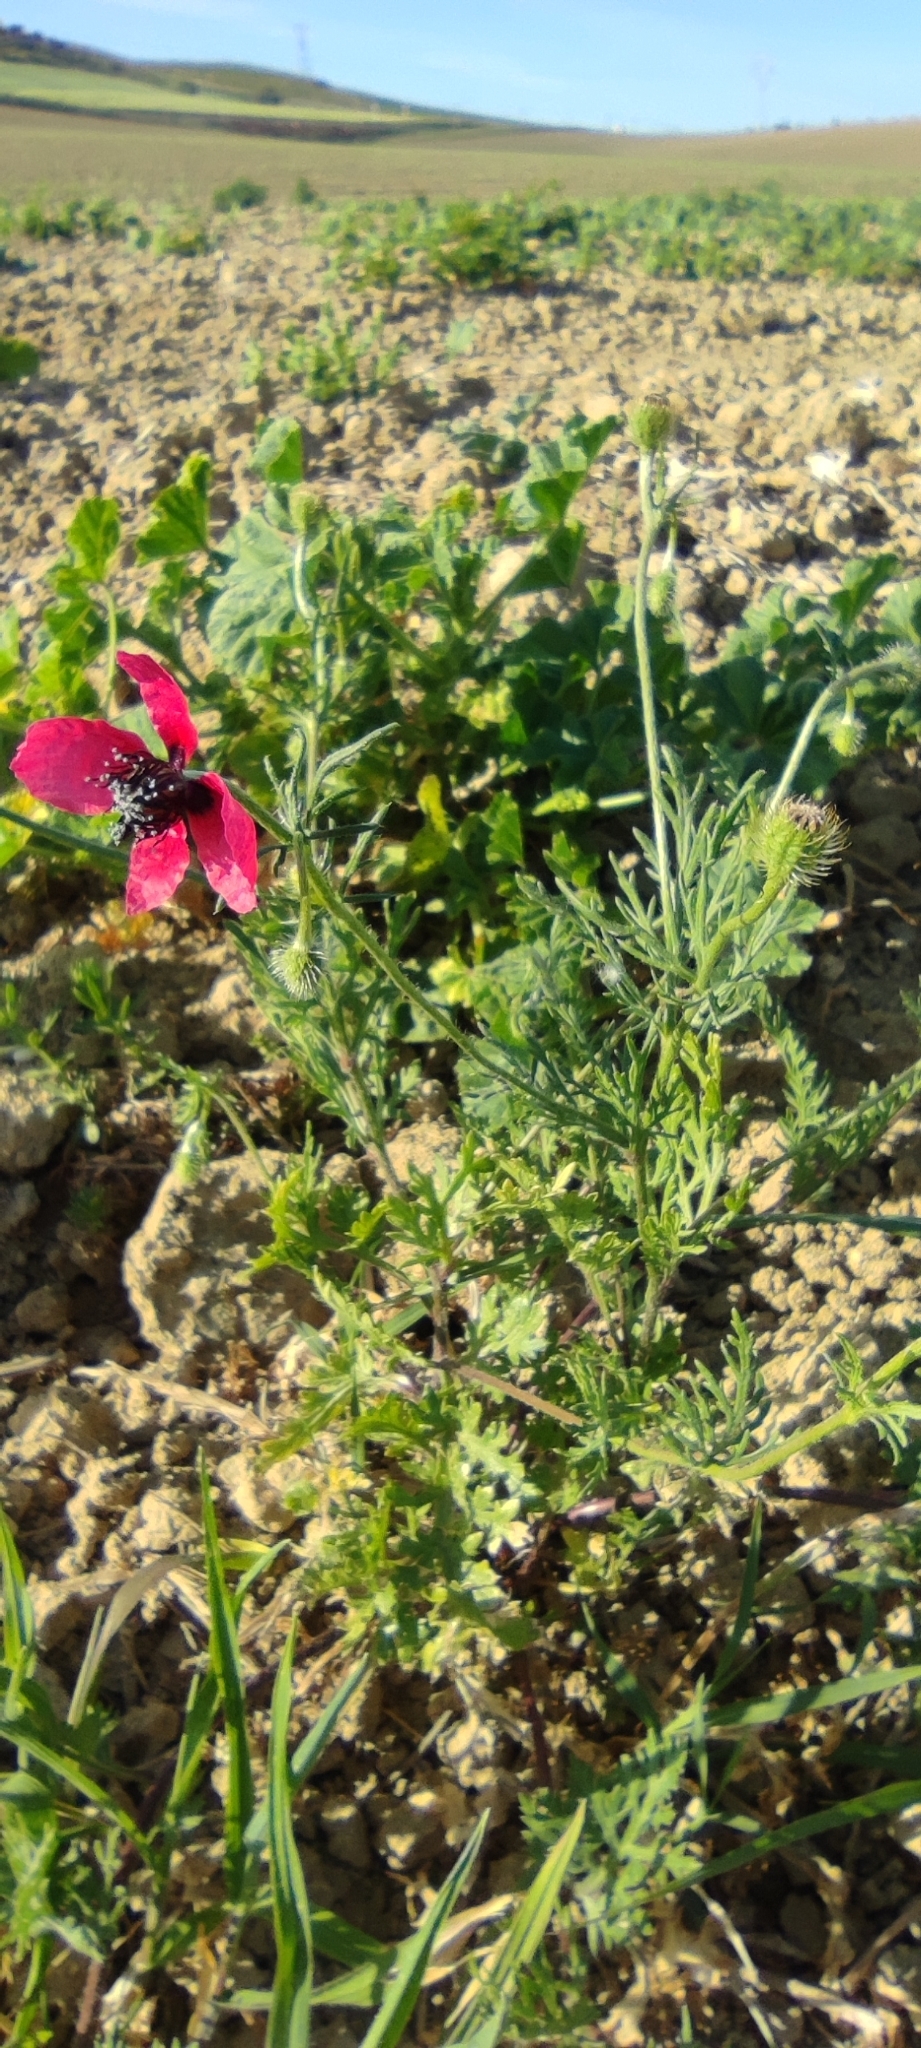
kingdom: Plantae
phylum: Tracheophyta
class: Magnoliopsida
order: Ranunculales
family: Papaveraceae
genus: Roemeria
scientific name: Roemeria hispida
